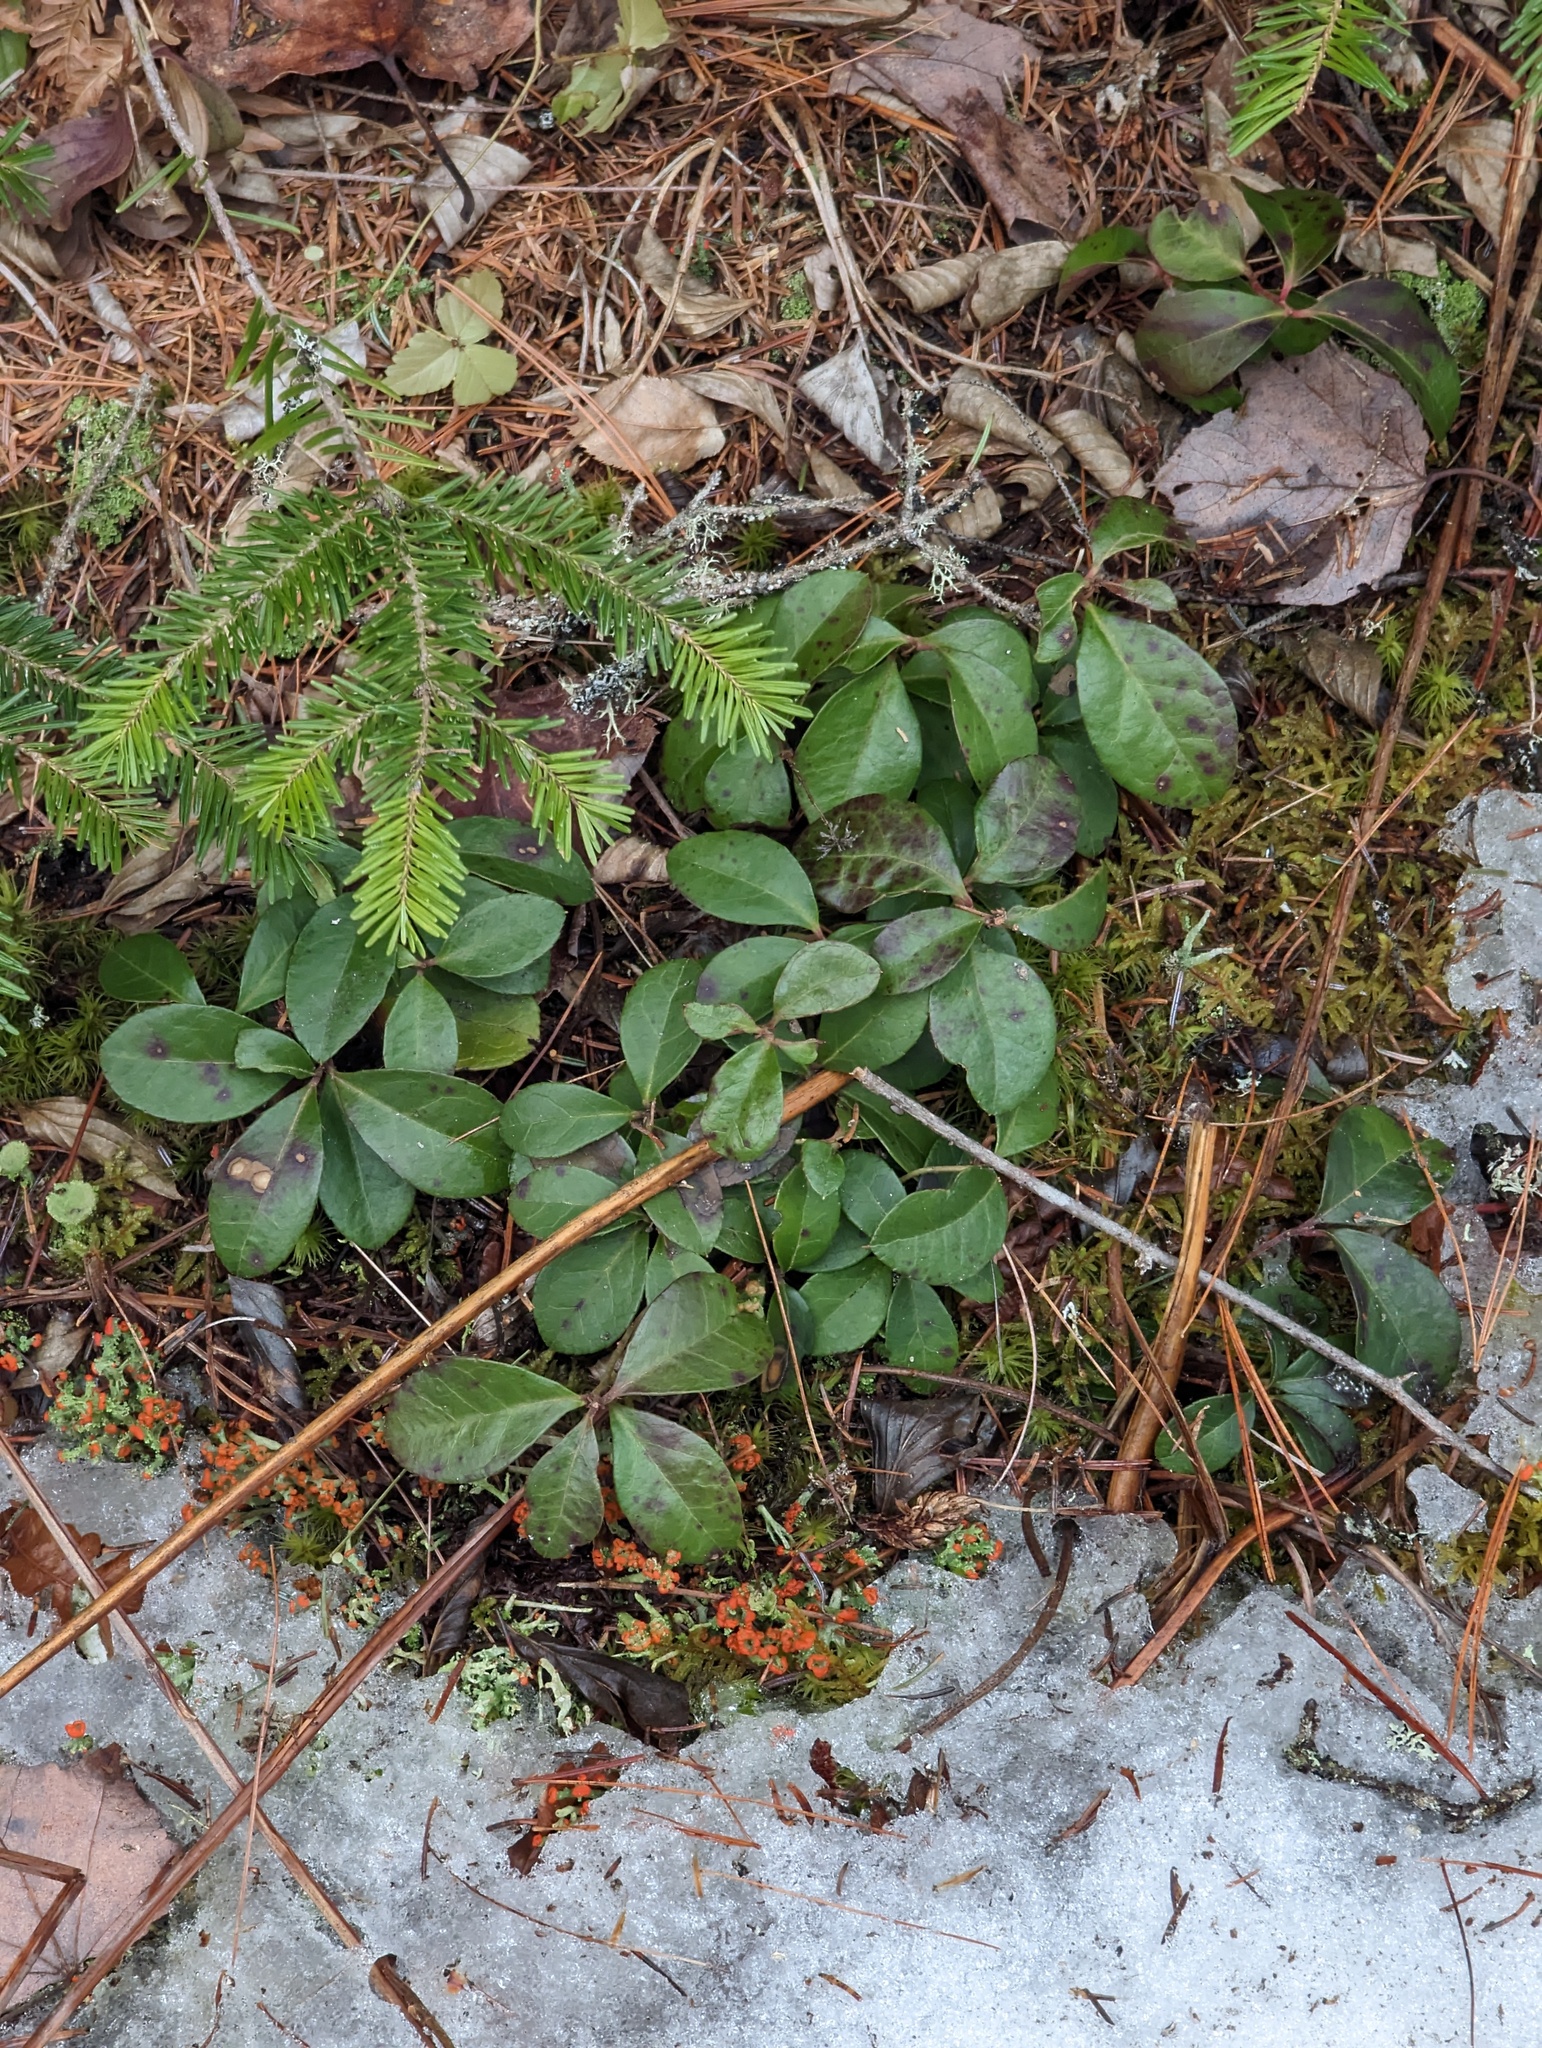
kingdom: Plantae
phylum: Tracheophyta
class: Magnoliopsida
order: Ericales
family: Ericaceae
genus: Gaultheria
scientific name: Gaultheria procumbens
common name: Checkerberry
